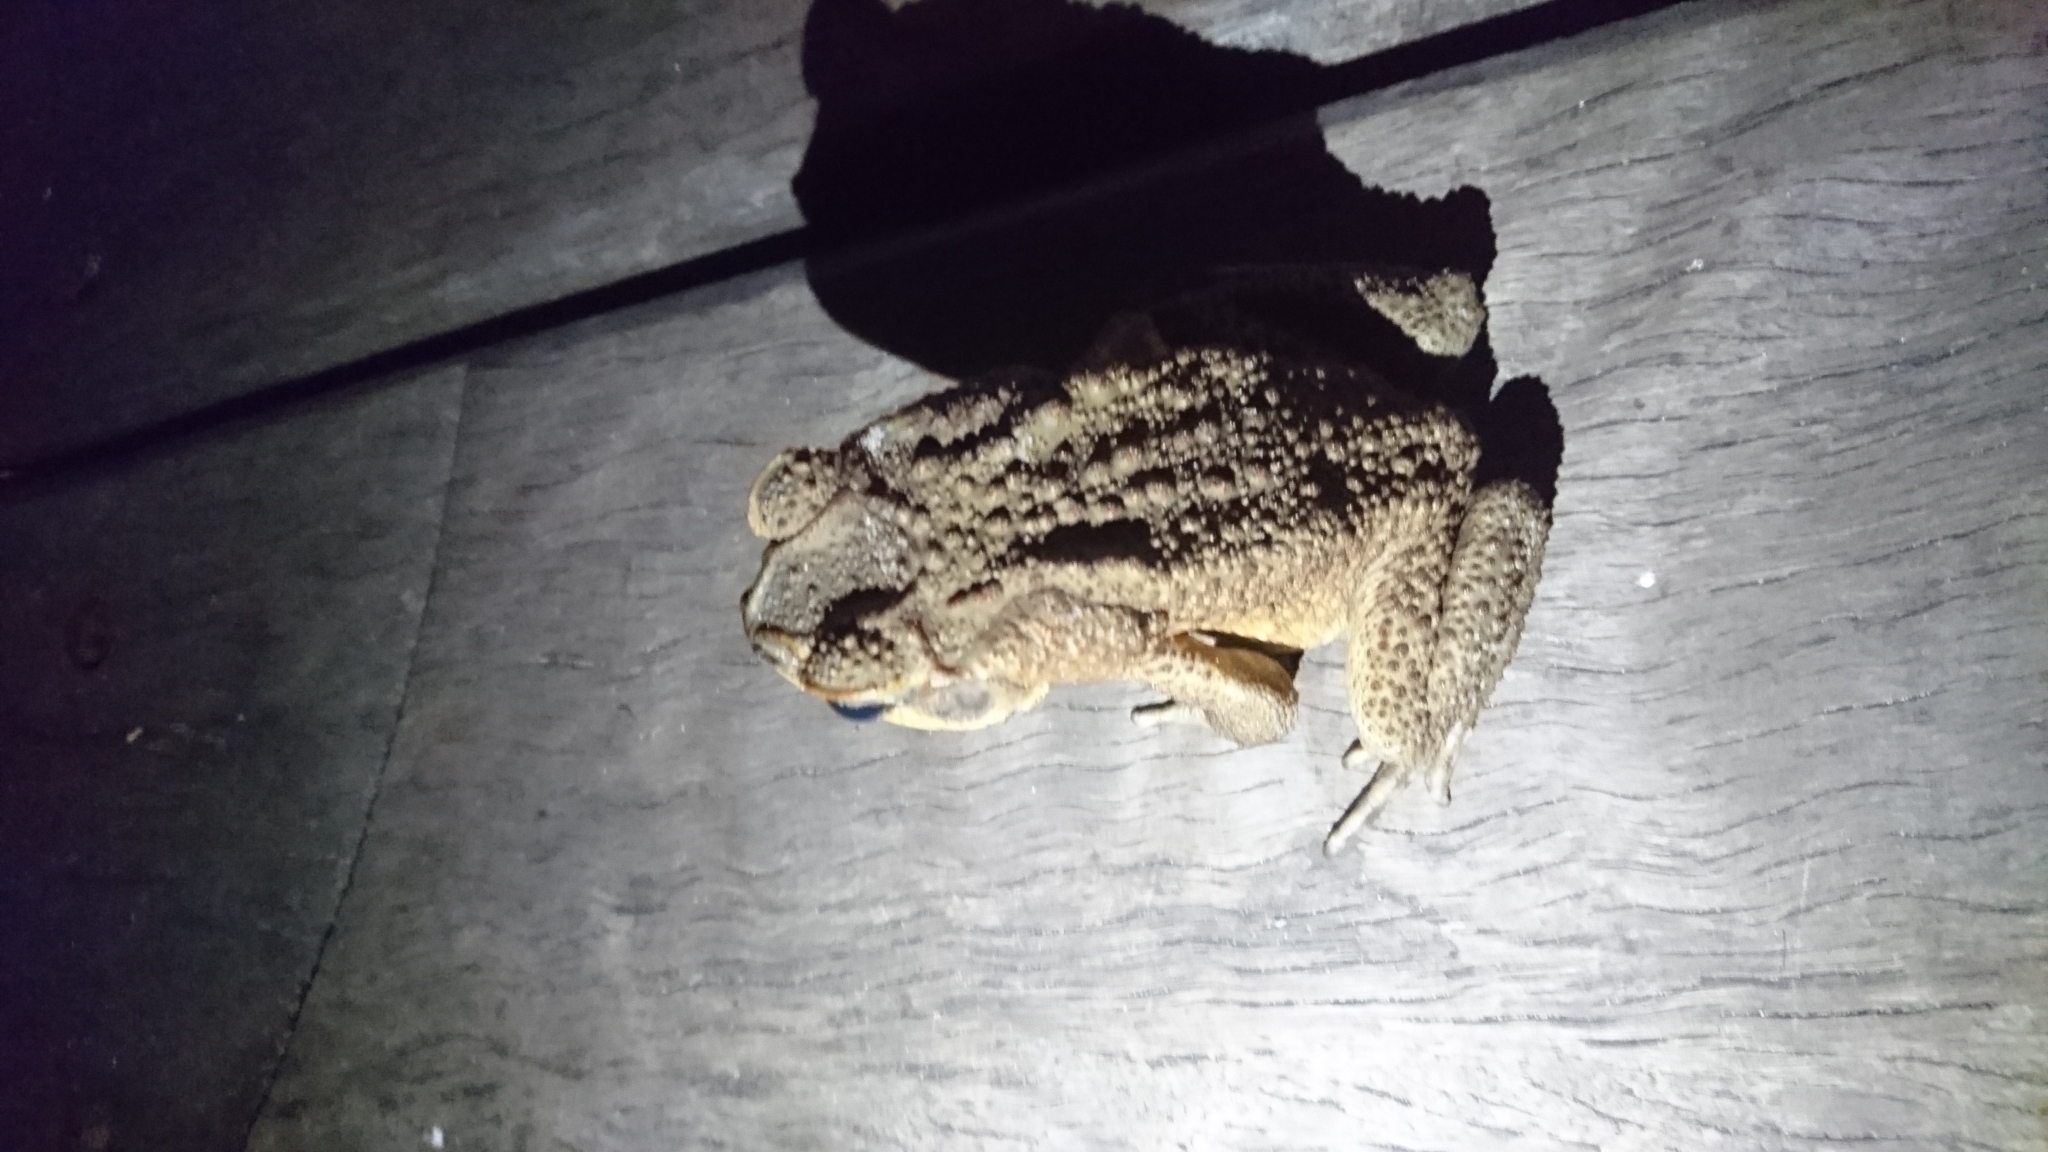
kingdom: Animalia
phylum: Chordata
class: Amphibia
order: Anura
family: Bufonidae
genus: Rhinella
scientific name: Rhinella marina
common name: Cane toad
